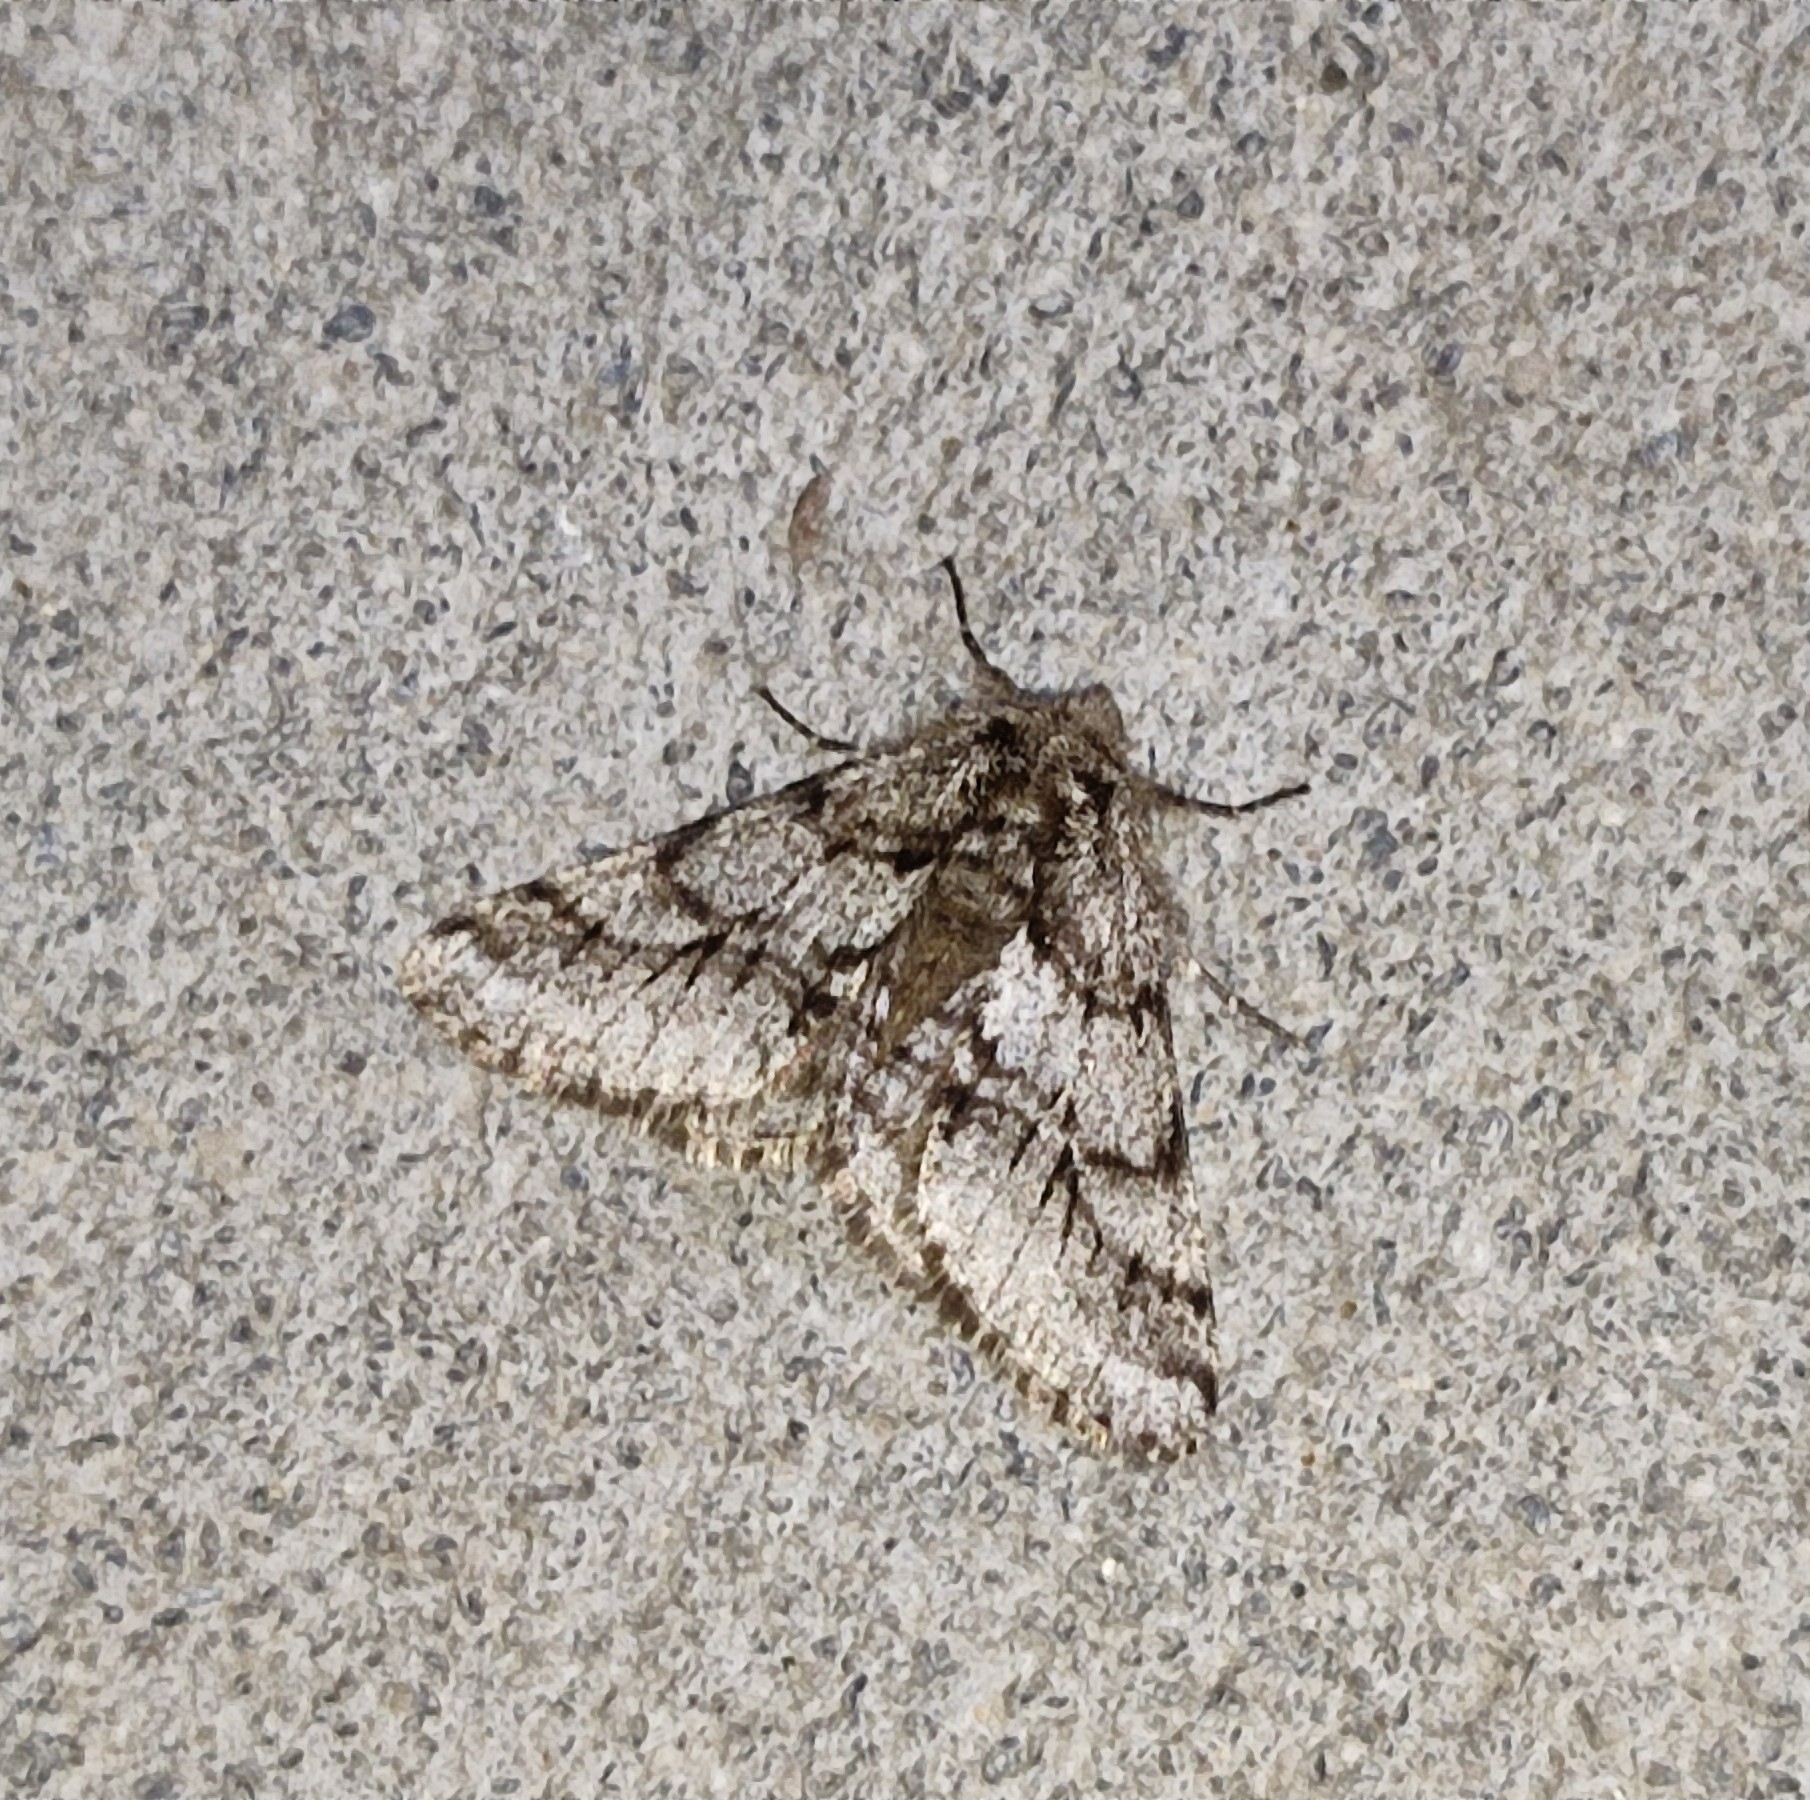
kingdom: Animalia
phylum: Arthropoda
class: Insecta
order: Lepidoptera
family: Geometridae
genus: Lycia
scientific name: Lycia hirtaria
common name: Brindled beauty
